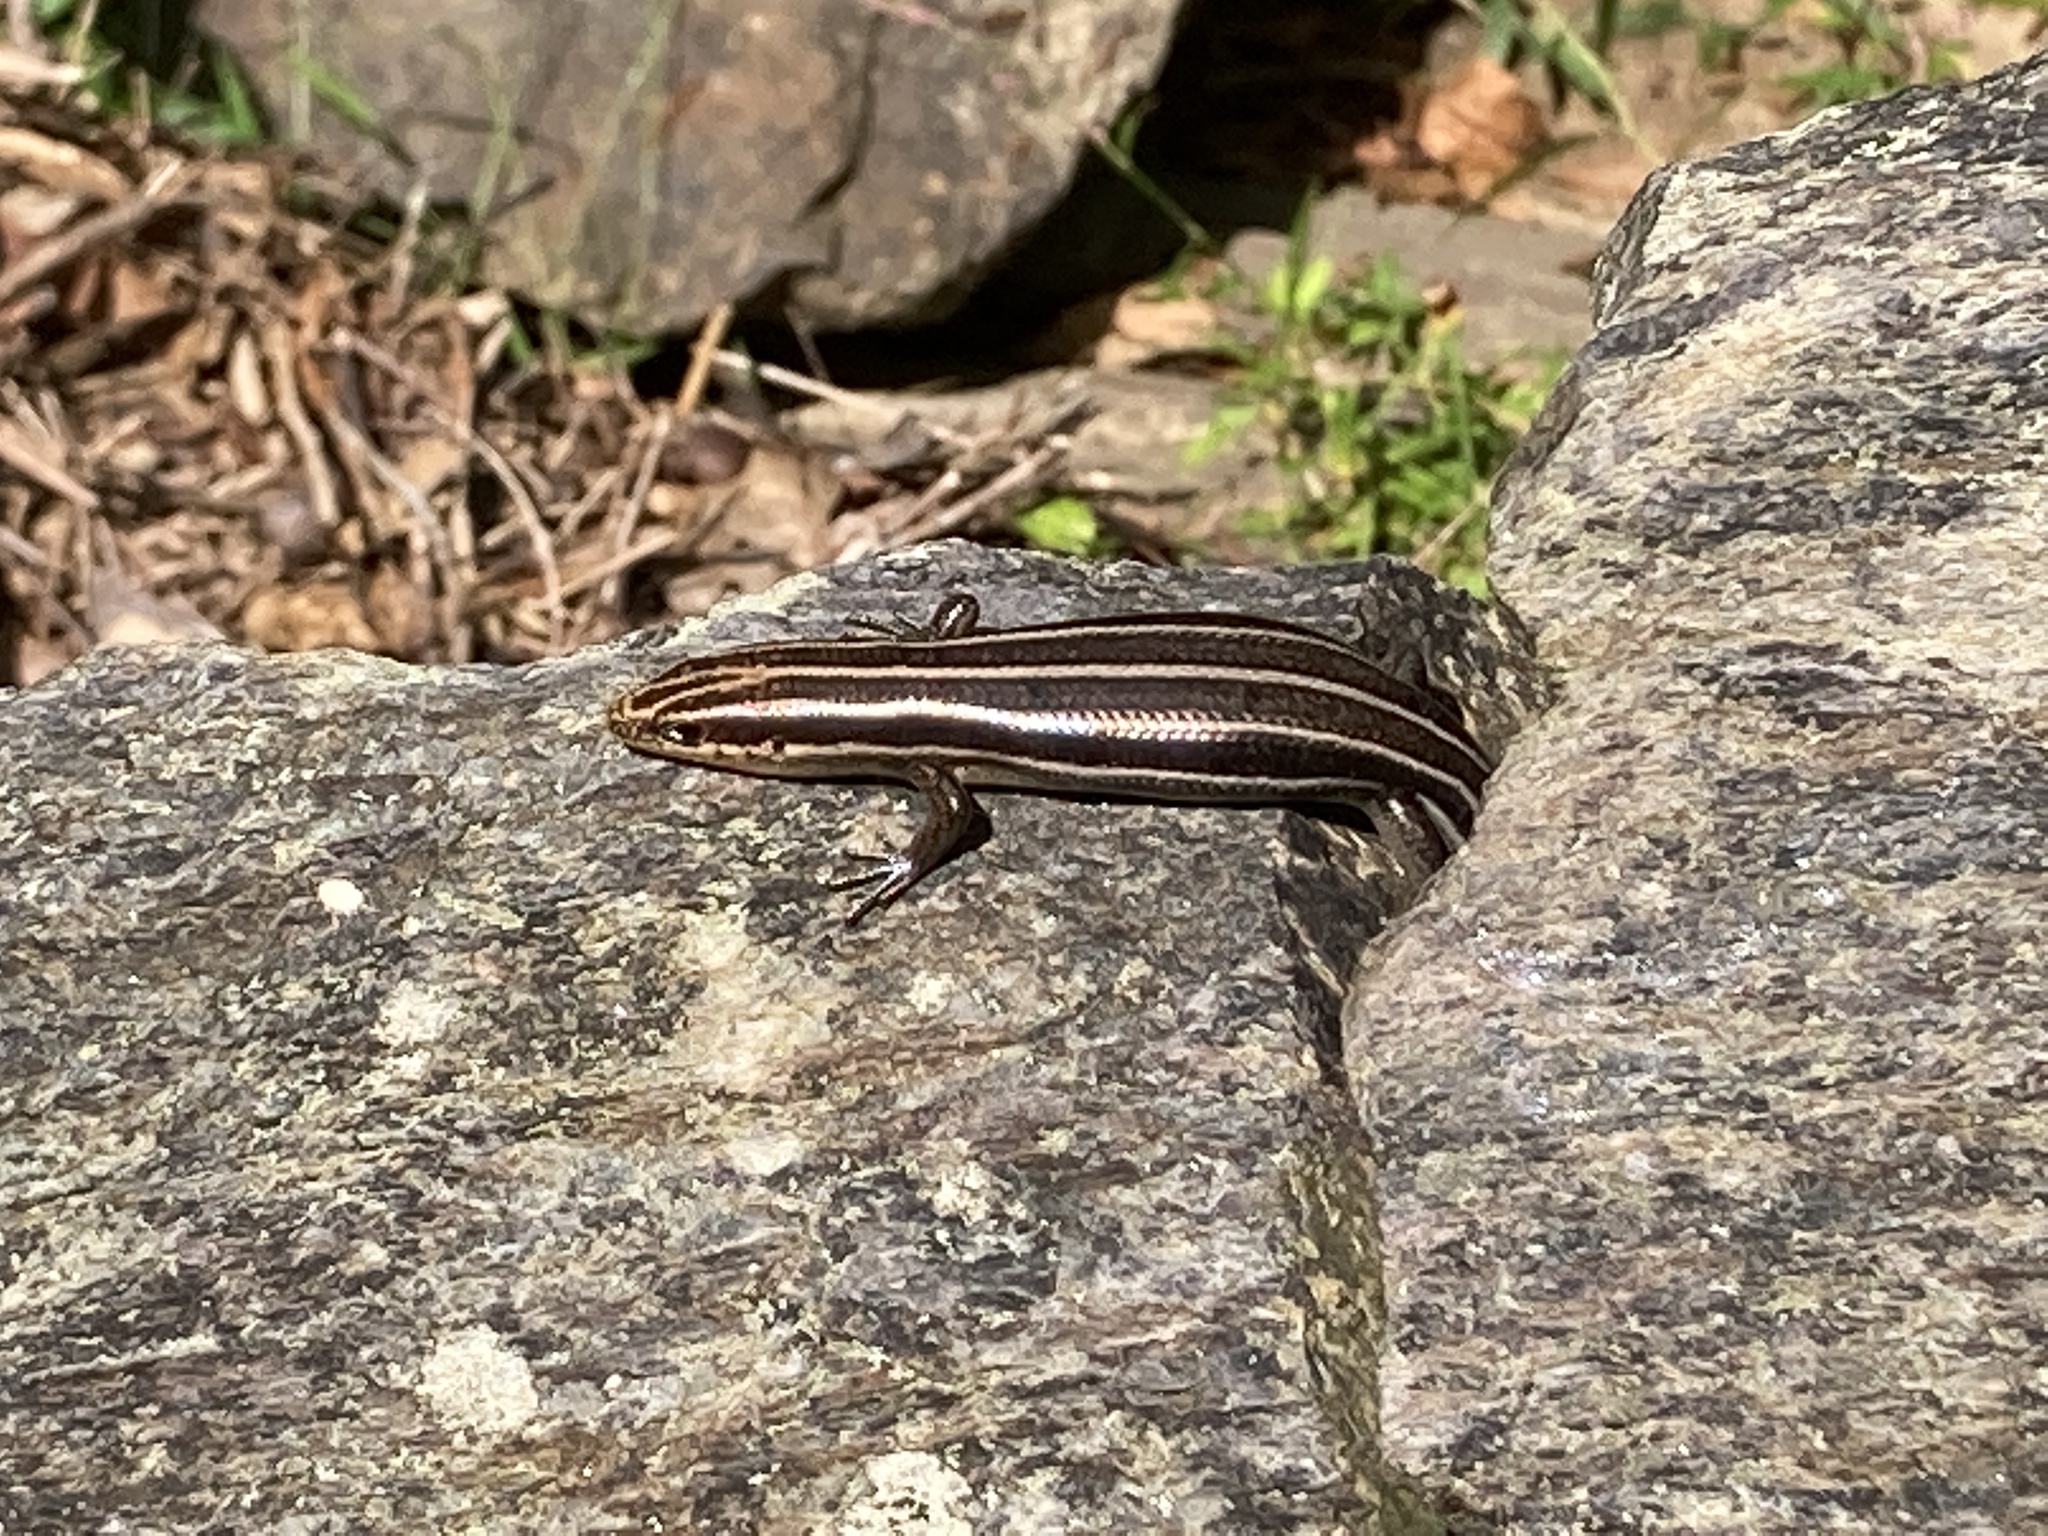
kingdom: Animalia
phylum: Chordata
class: Squamata
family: Scincidae
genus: Plestiodon
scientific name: Plestiodon fasciatus
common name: Five-lined skink
